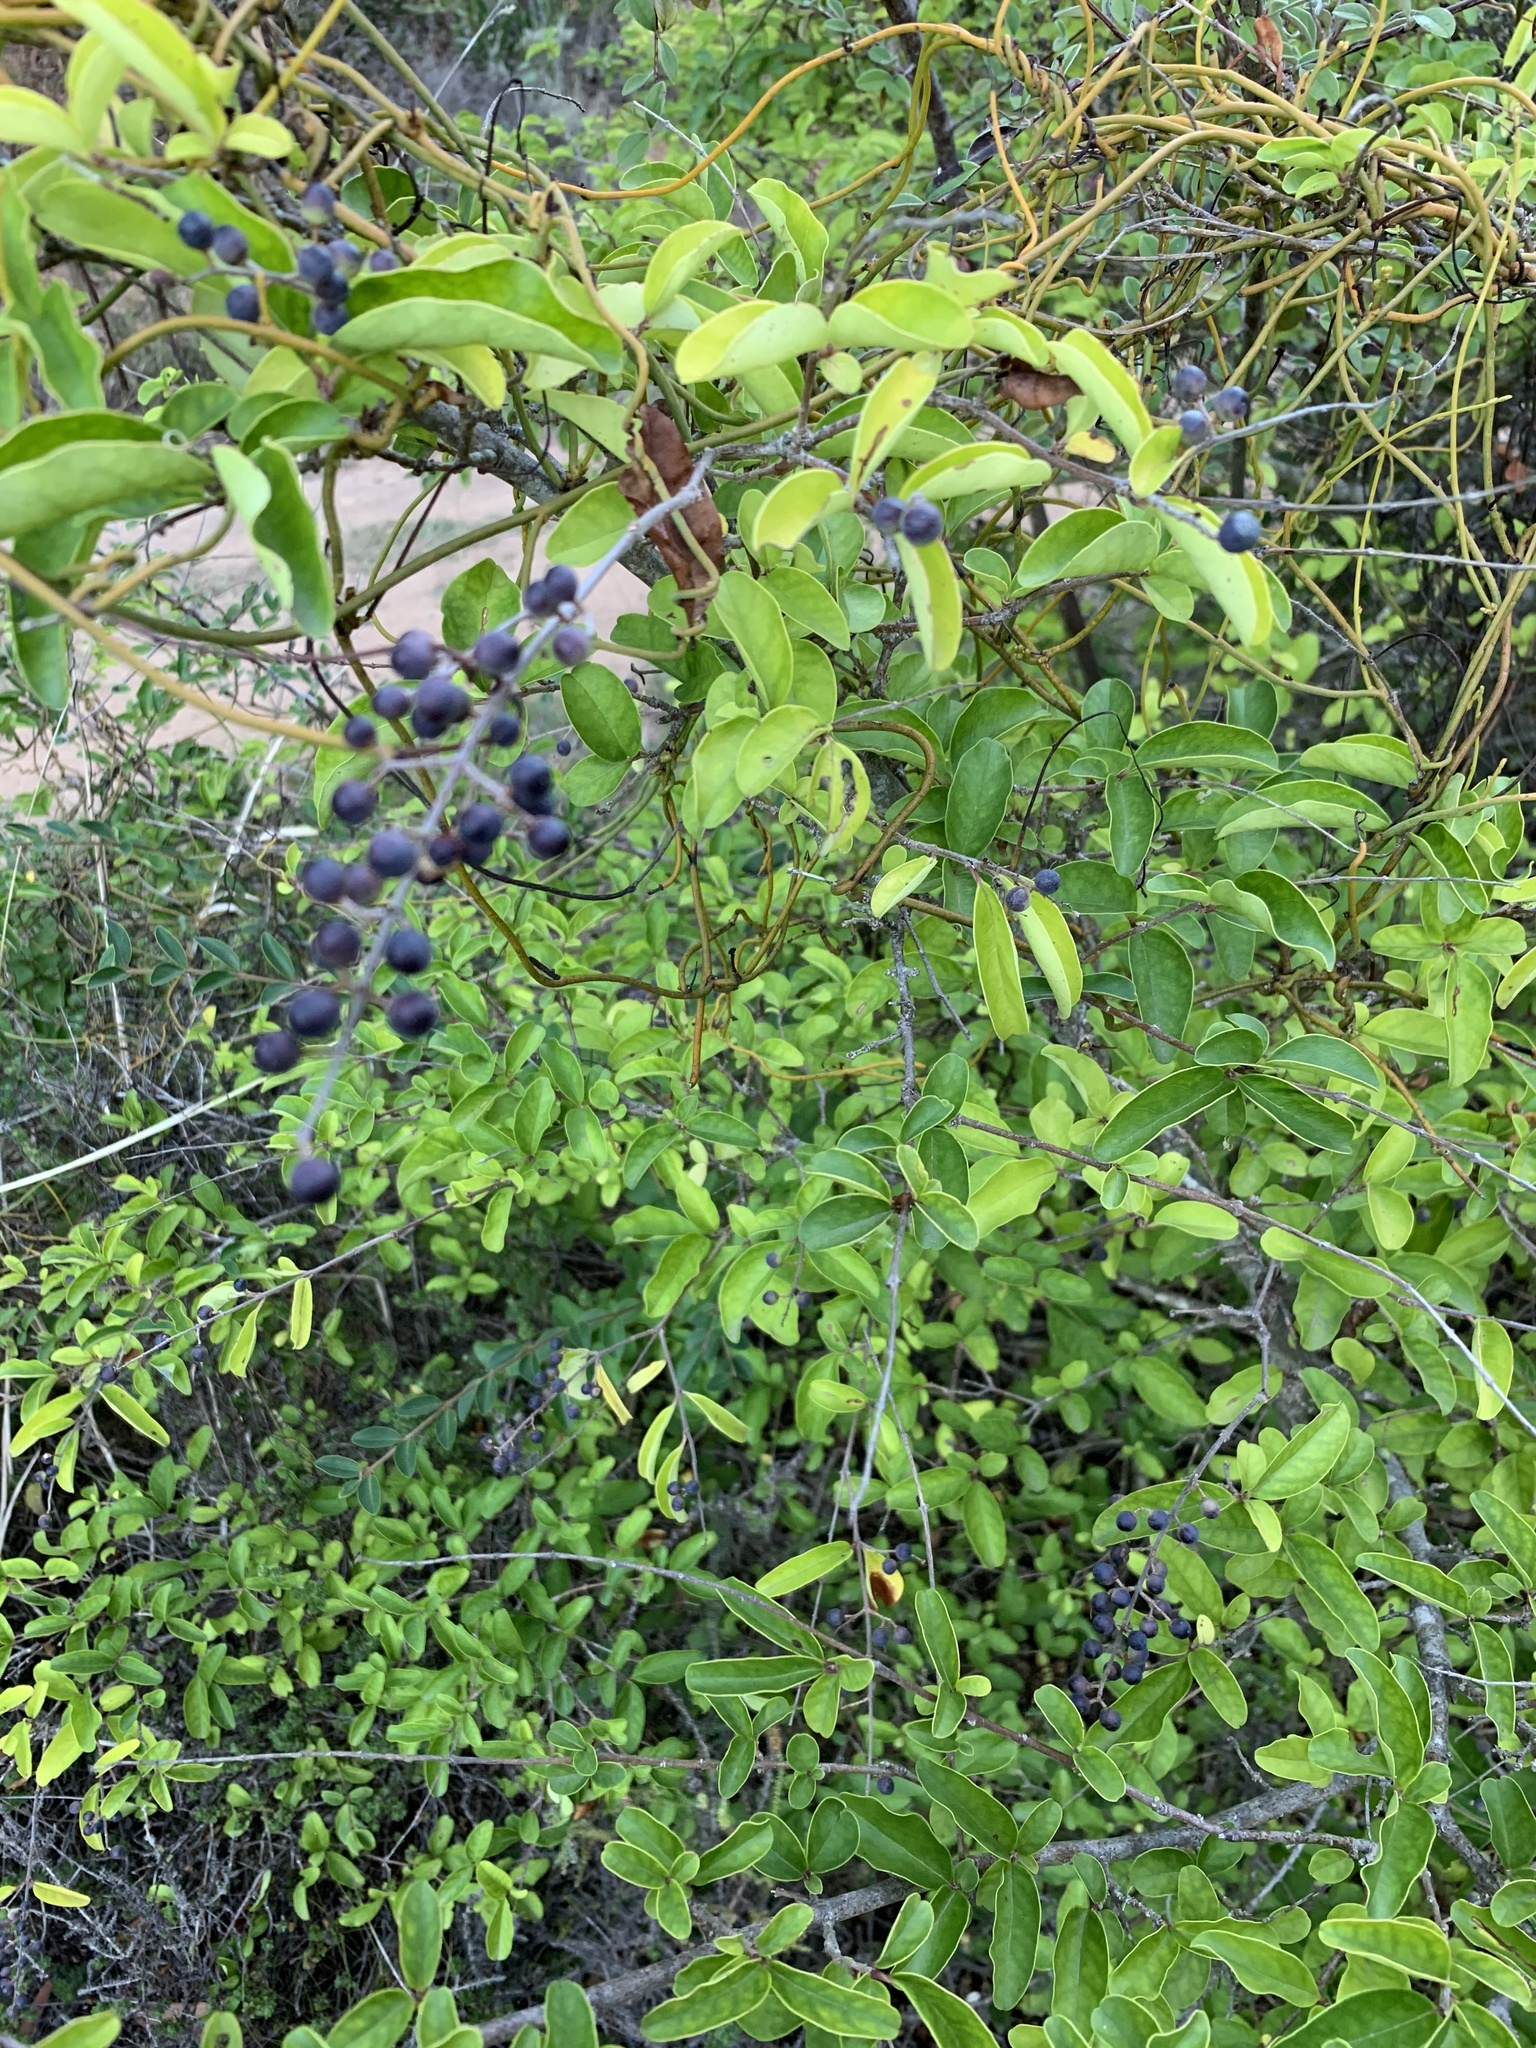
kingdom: Plantae
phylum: Tracheophyta
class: Magnoliopsida
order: Lamiales
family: Oleaceae
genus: Ligustrum
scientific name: Ligustrum sinense
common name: Chinese privet
